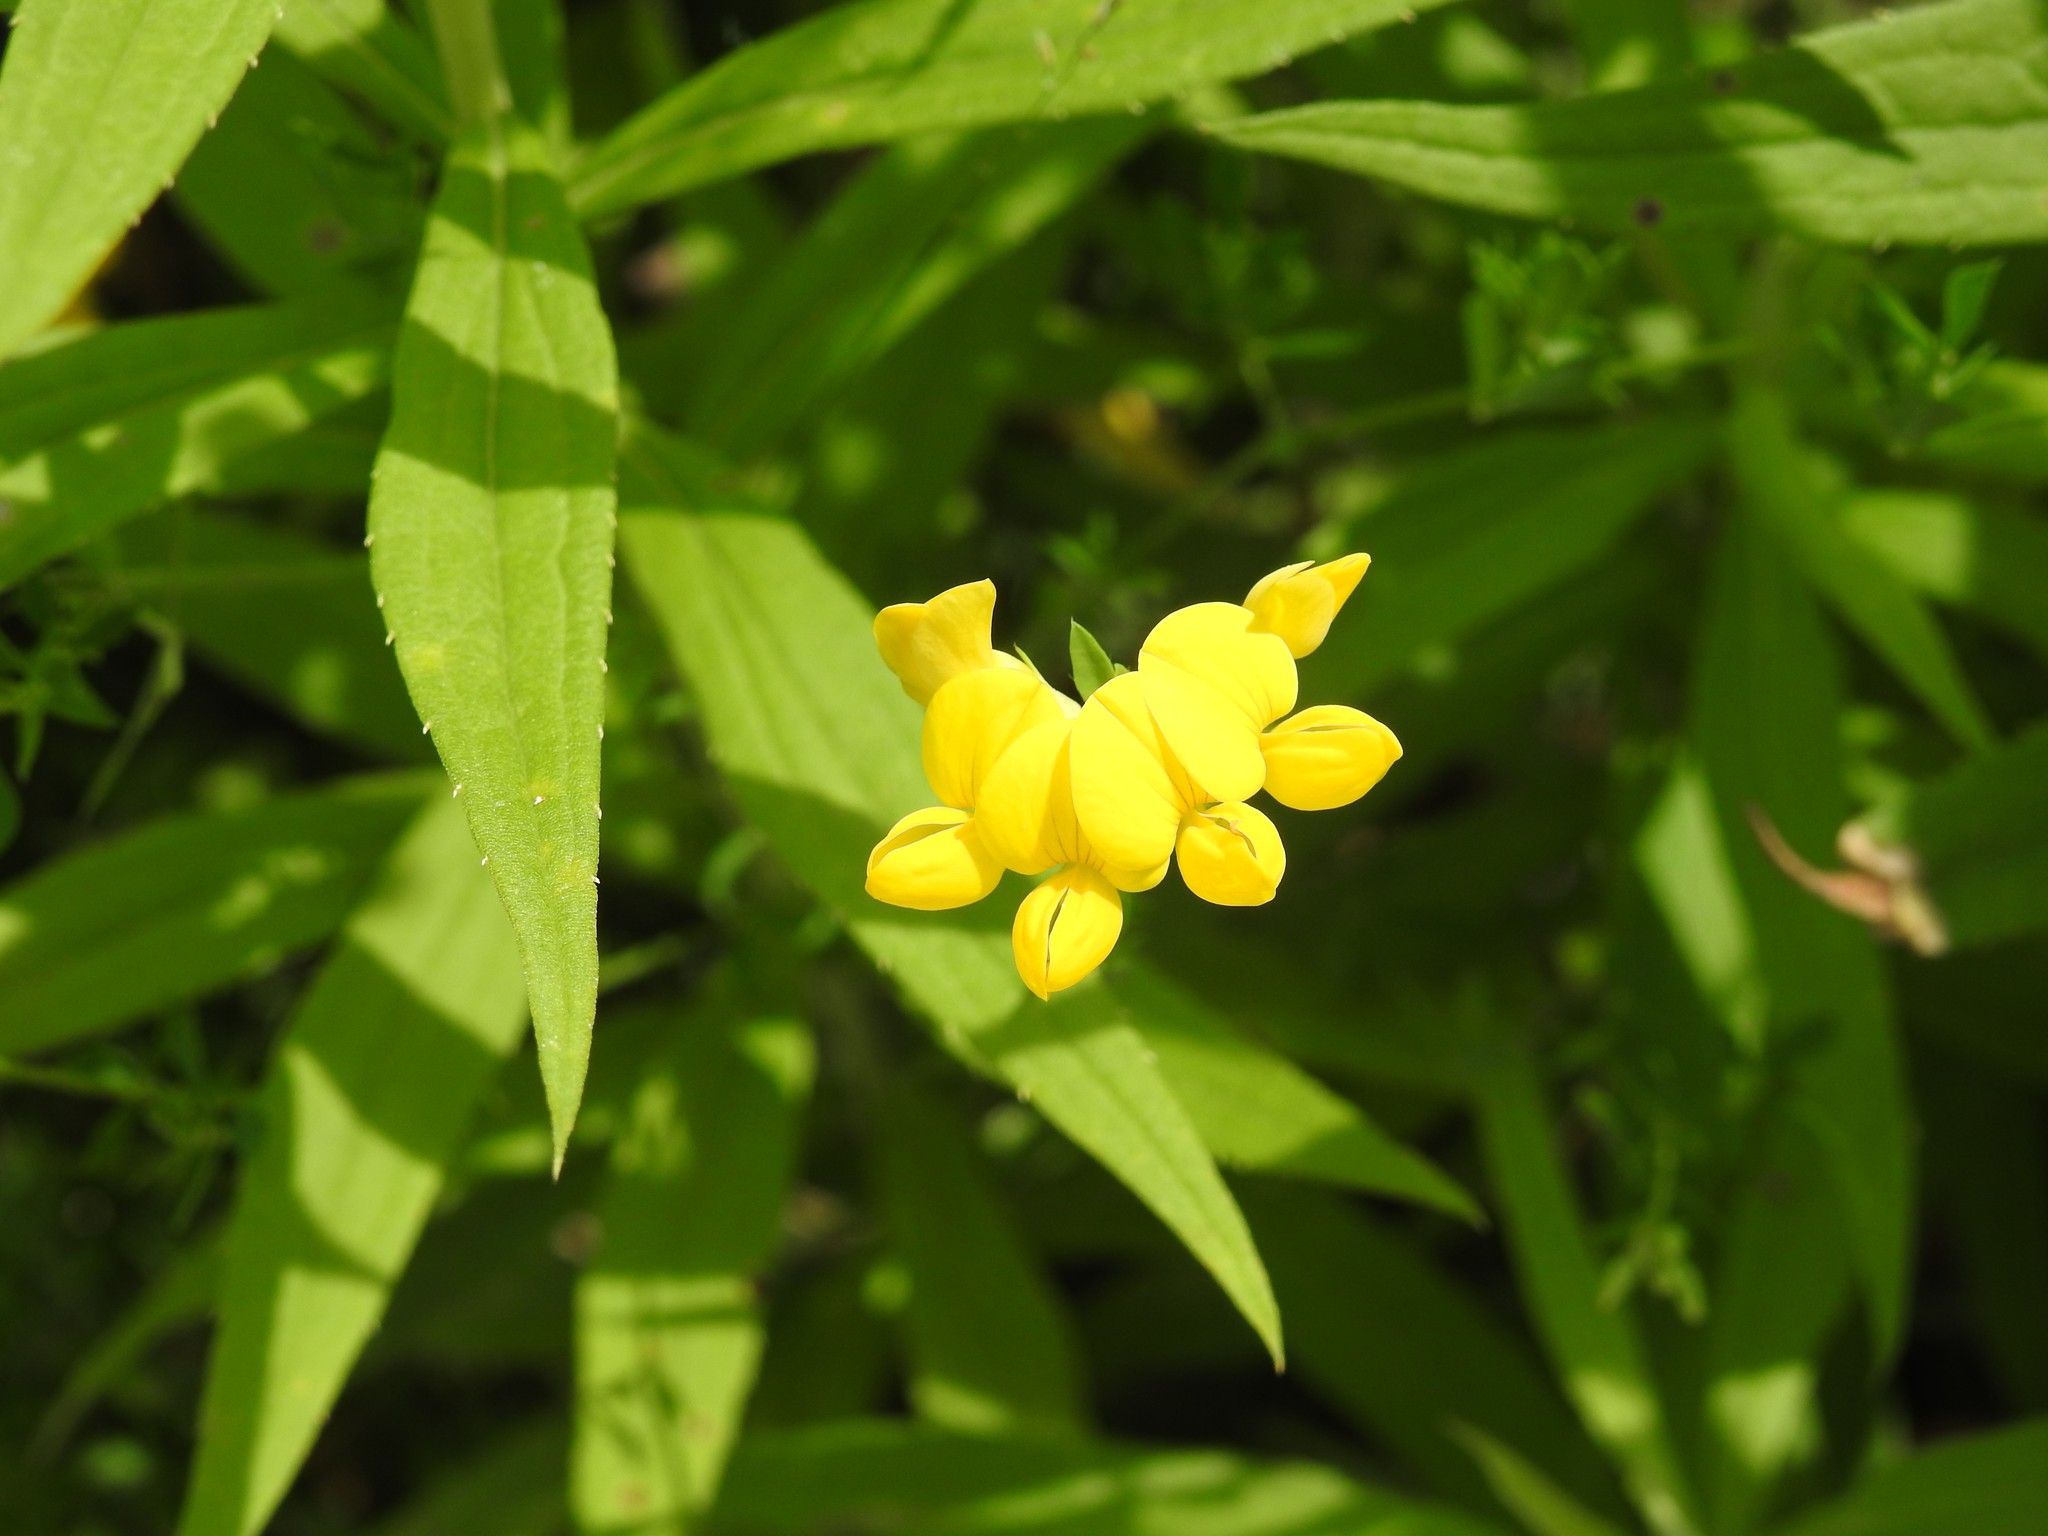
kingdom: Plantae
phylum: Tracheophyta
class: Magnoliopsida
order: Fabales
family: Fabaceae
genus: Lotus
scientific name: Lotus corniculatus
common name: Common bird's-foot-trefoil
